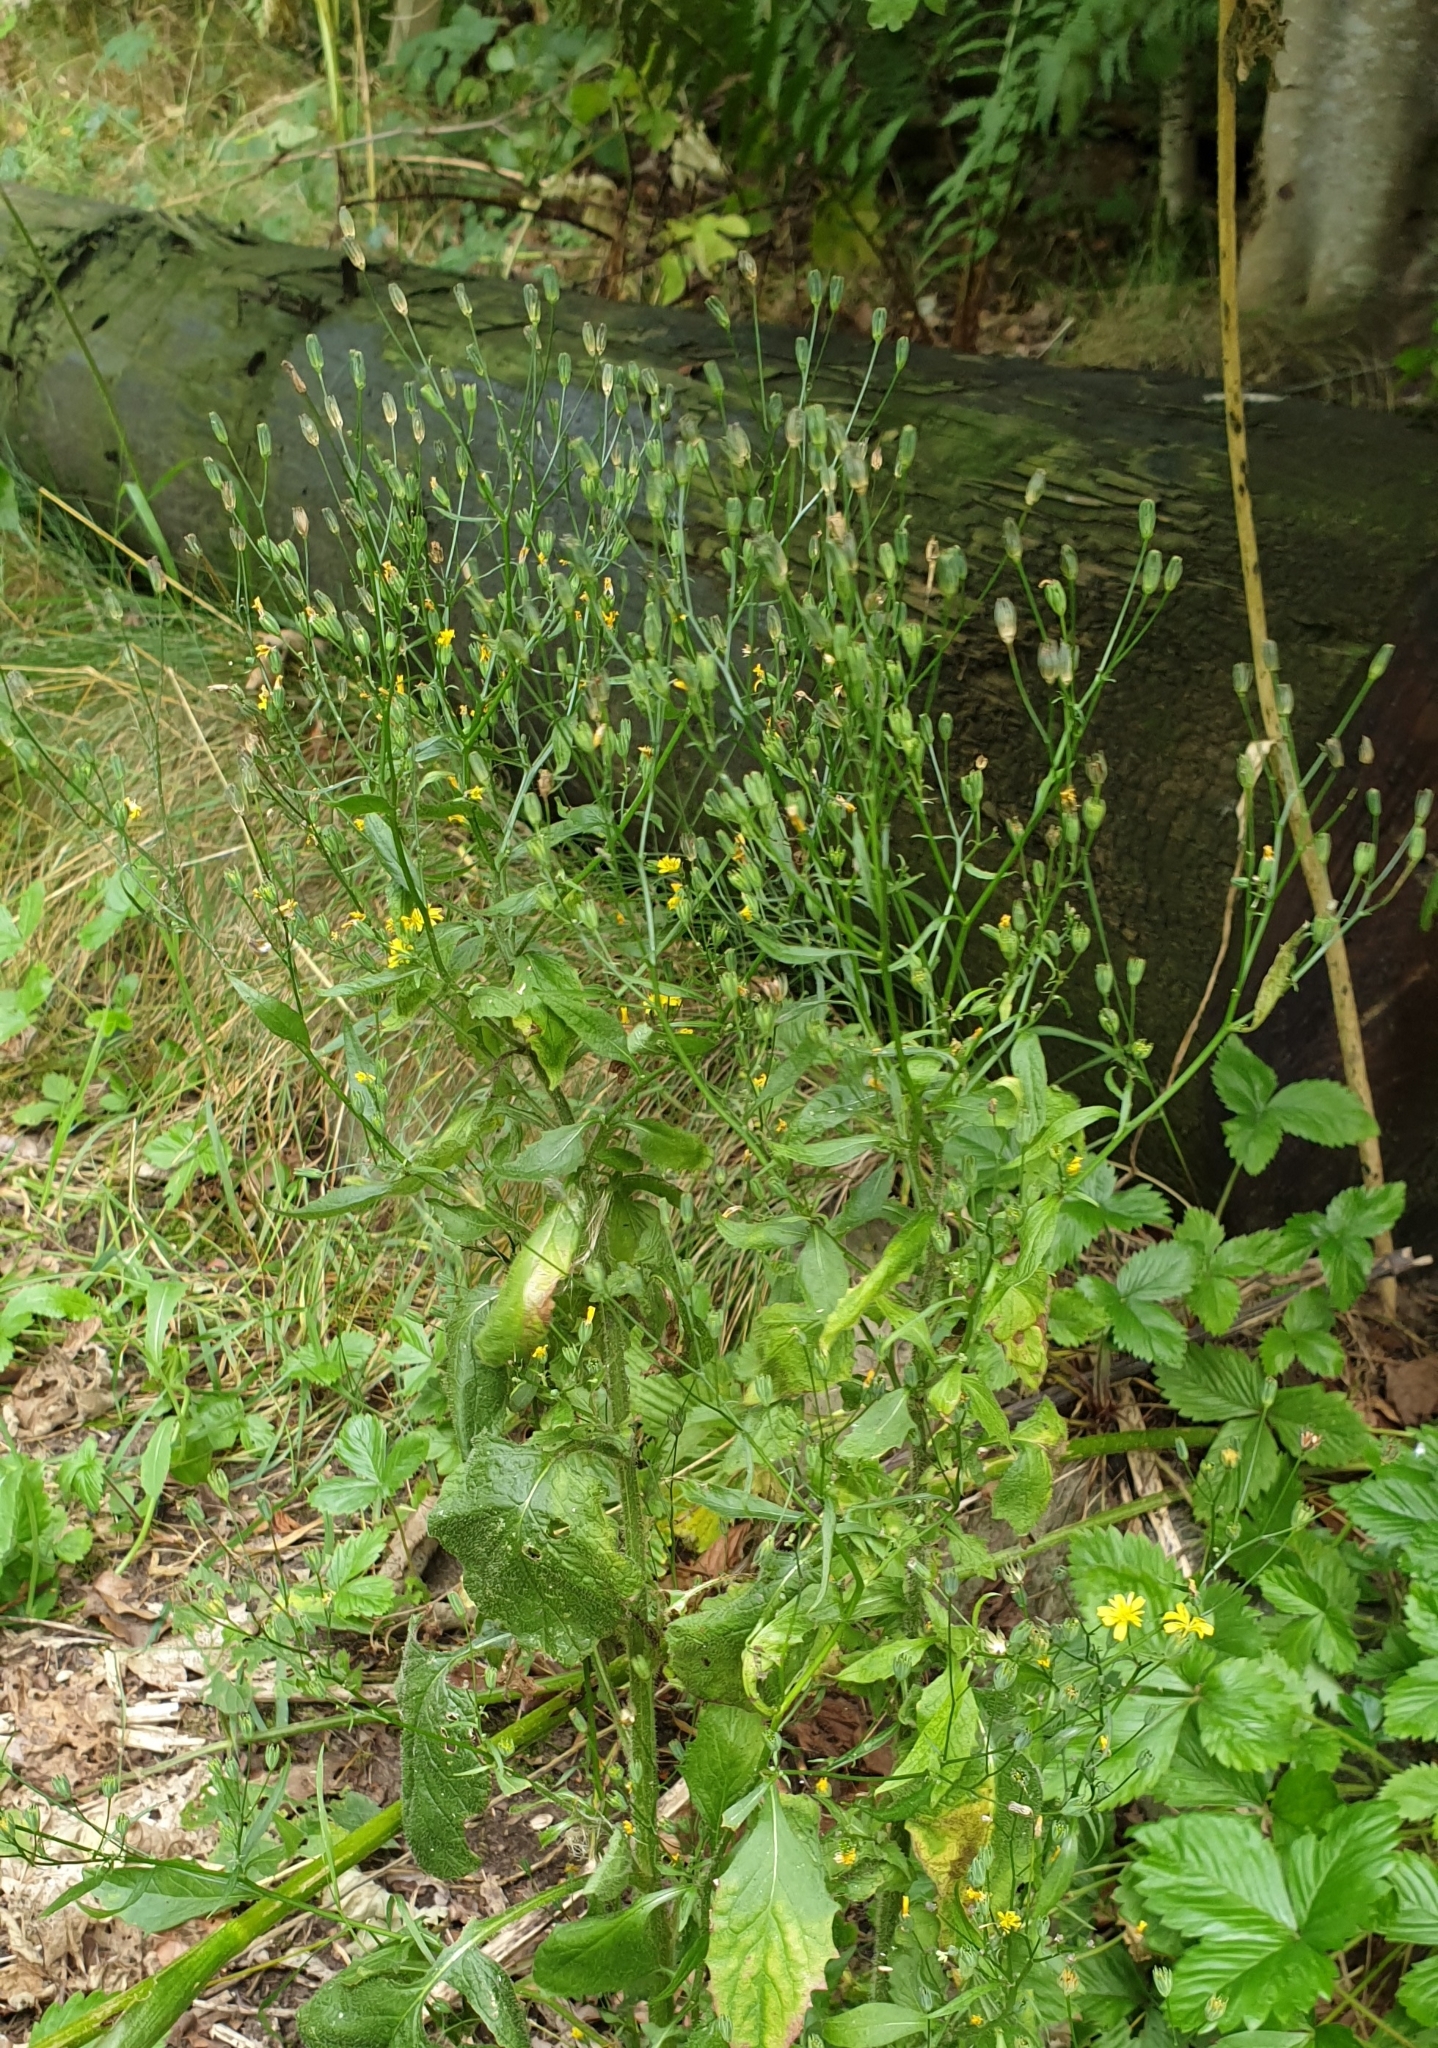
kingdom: Plantae
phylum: Tracheophyta
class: Magnoliopsida
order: Asterales
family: Asteraceae
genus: Lapsana
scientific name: Lapsana communis
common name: Nipplewort
